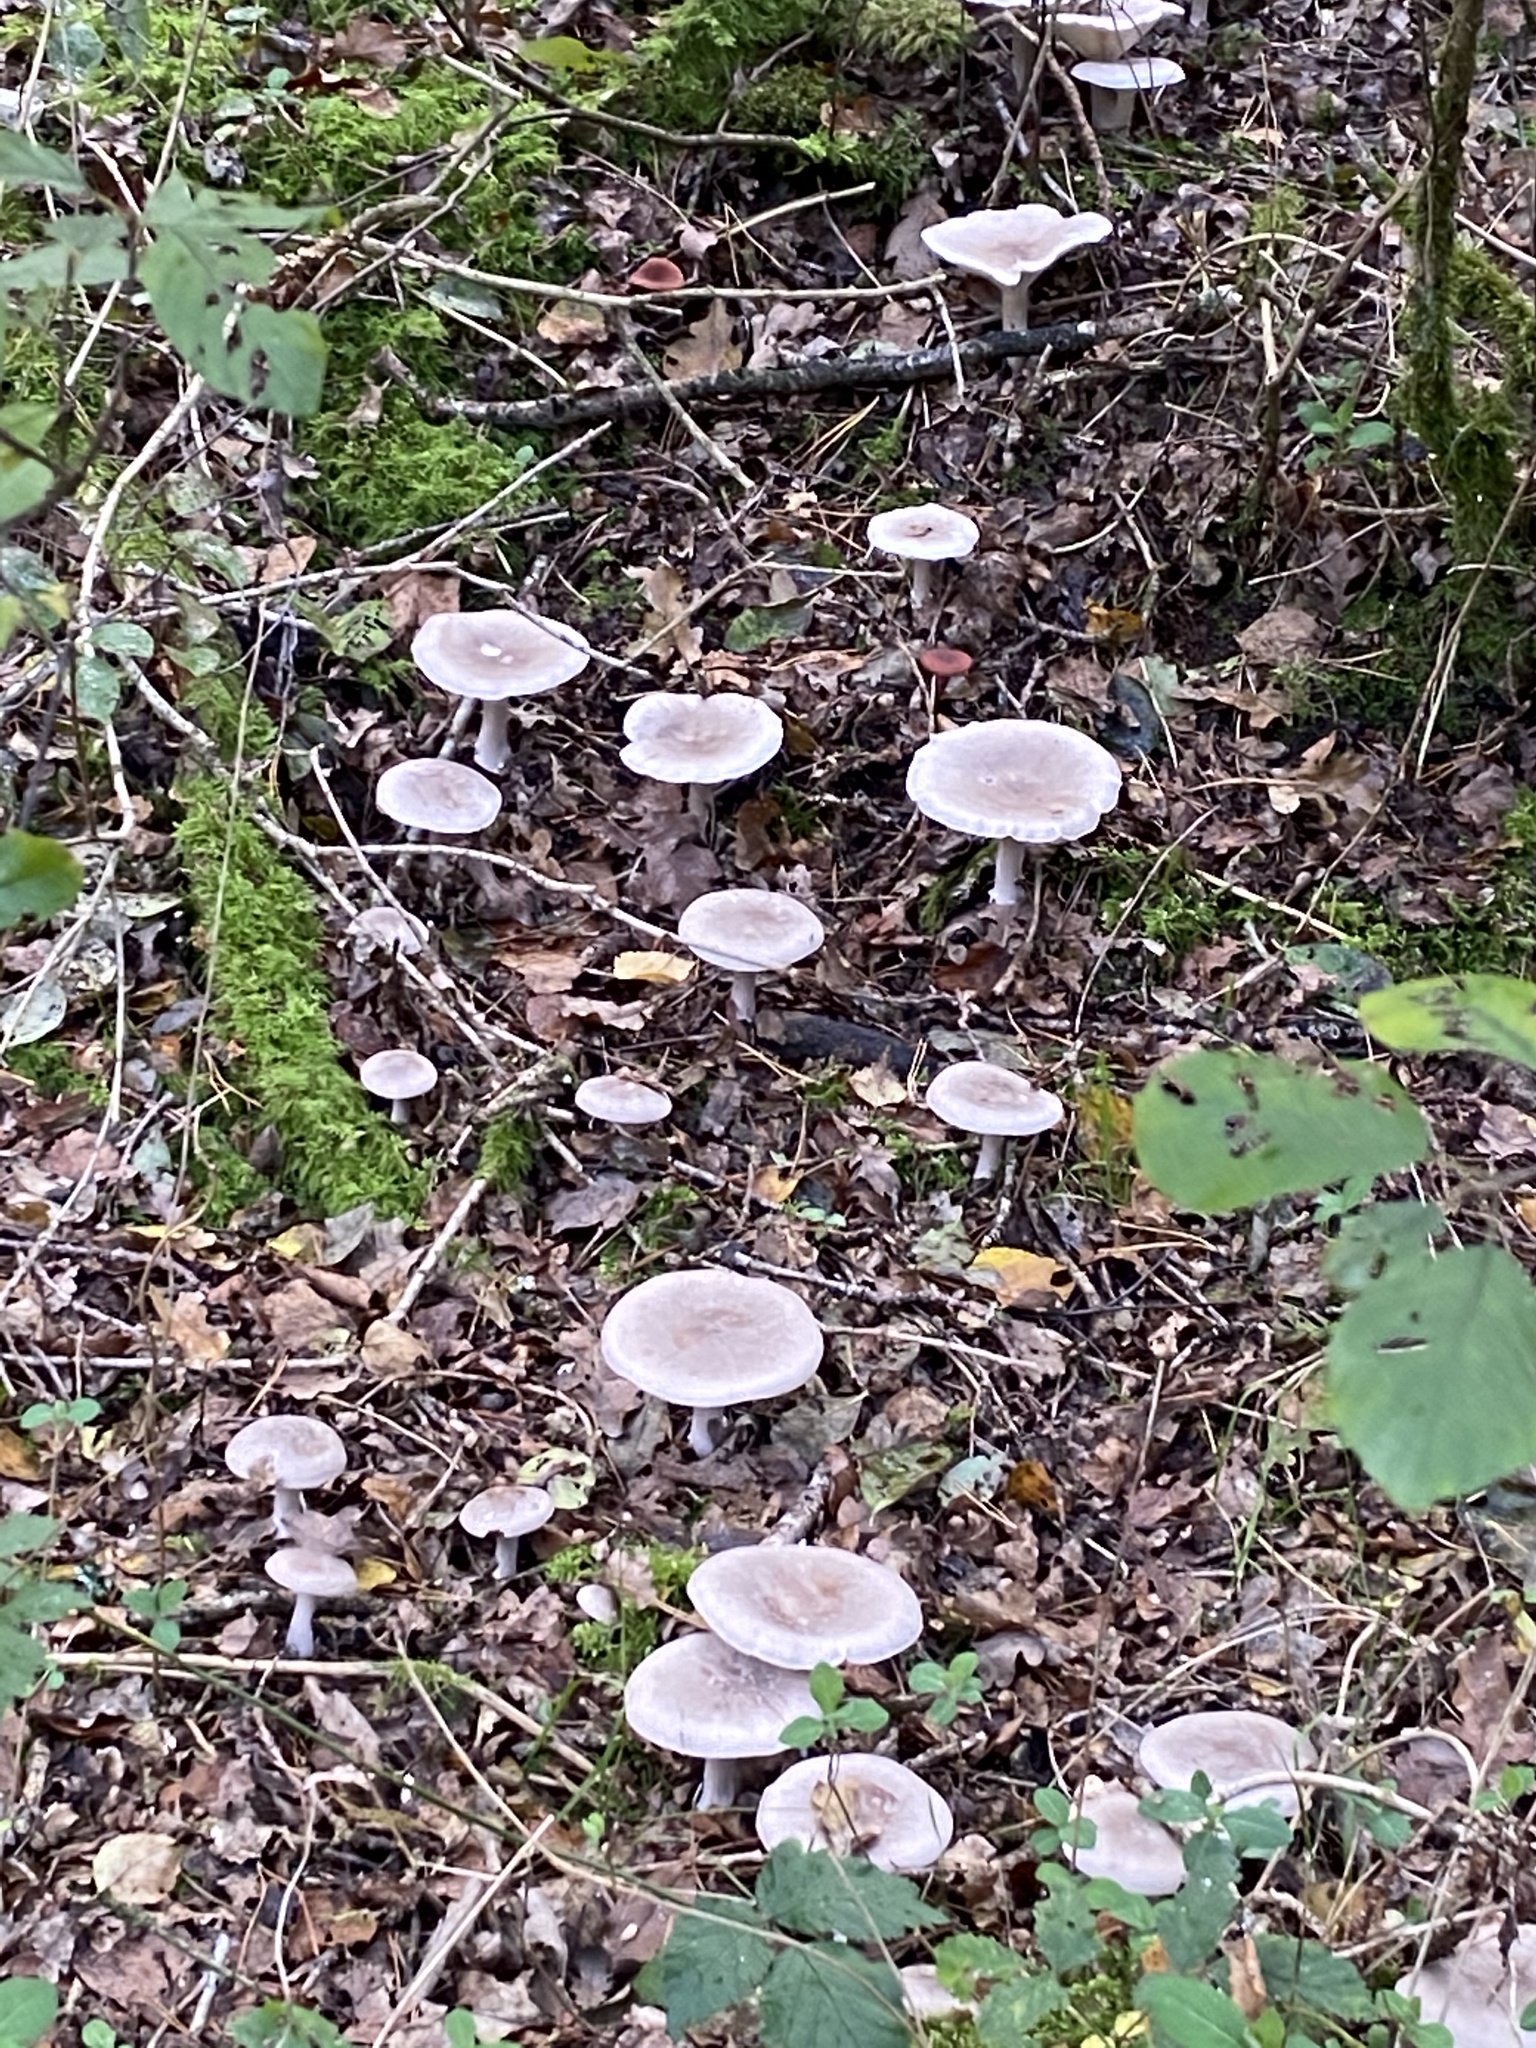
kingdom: Fungi
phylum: Basidiomycota
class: Agaricomycetes
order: Agaricales
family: Tricholomataceae
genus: Clitocybe
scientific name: Clitocybe nebularis
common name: Clouded agaric
